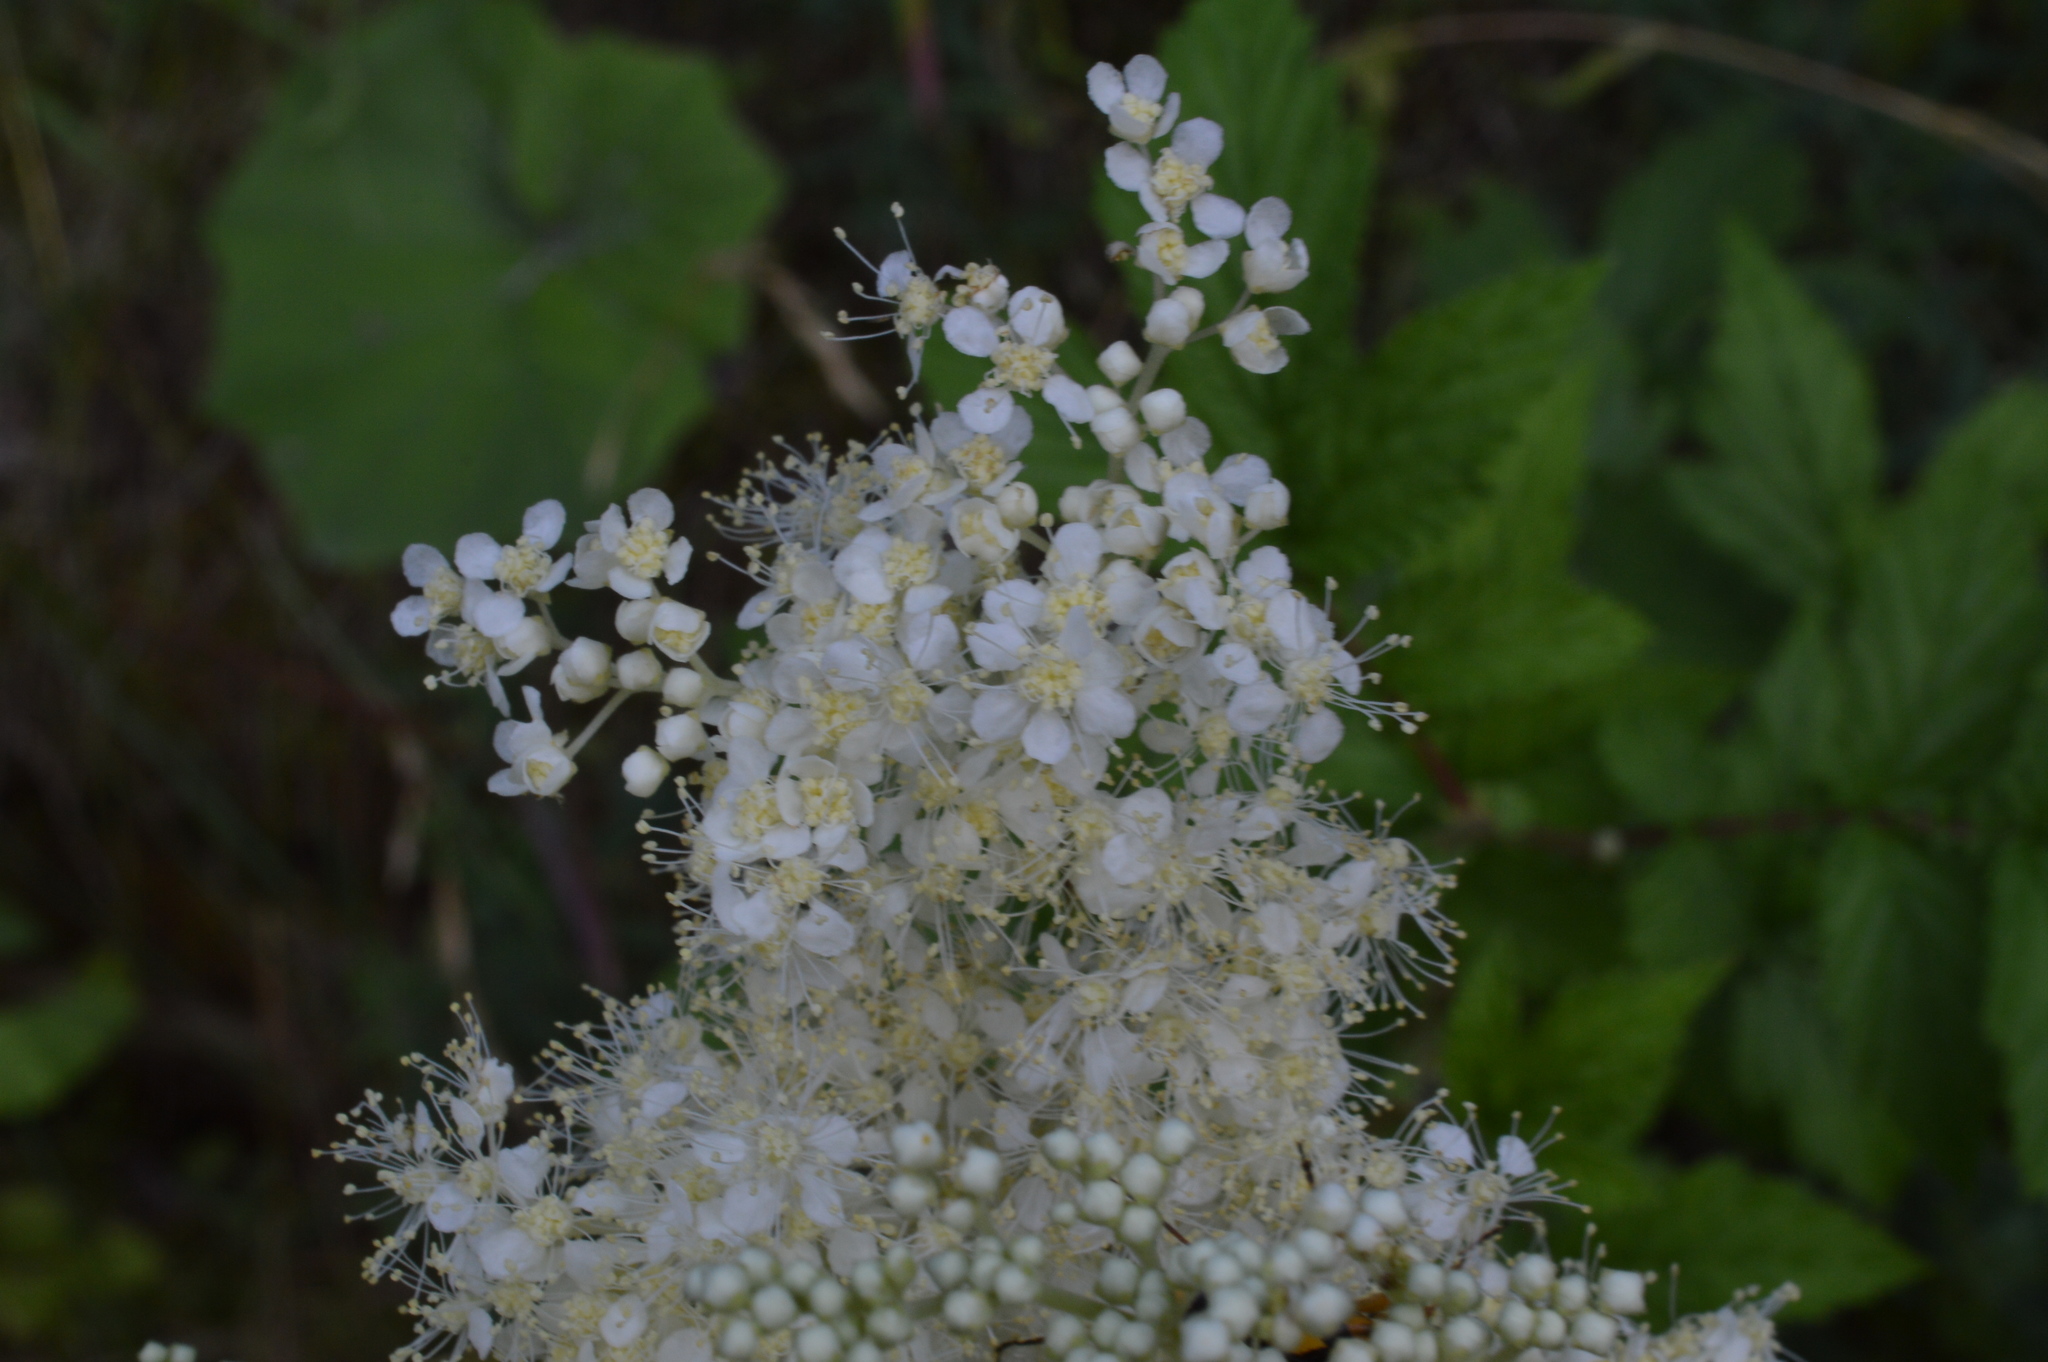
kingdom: Plantae
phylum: Tracheophyta
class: Magnoliopsida
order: Rosales
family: Rosaceae
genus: Filipendula
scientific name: Filipendula ulmaria
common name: Meadowsweet
